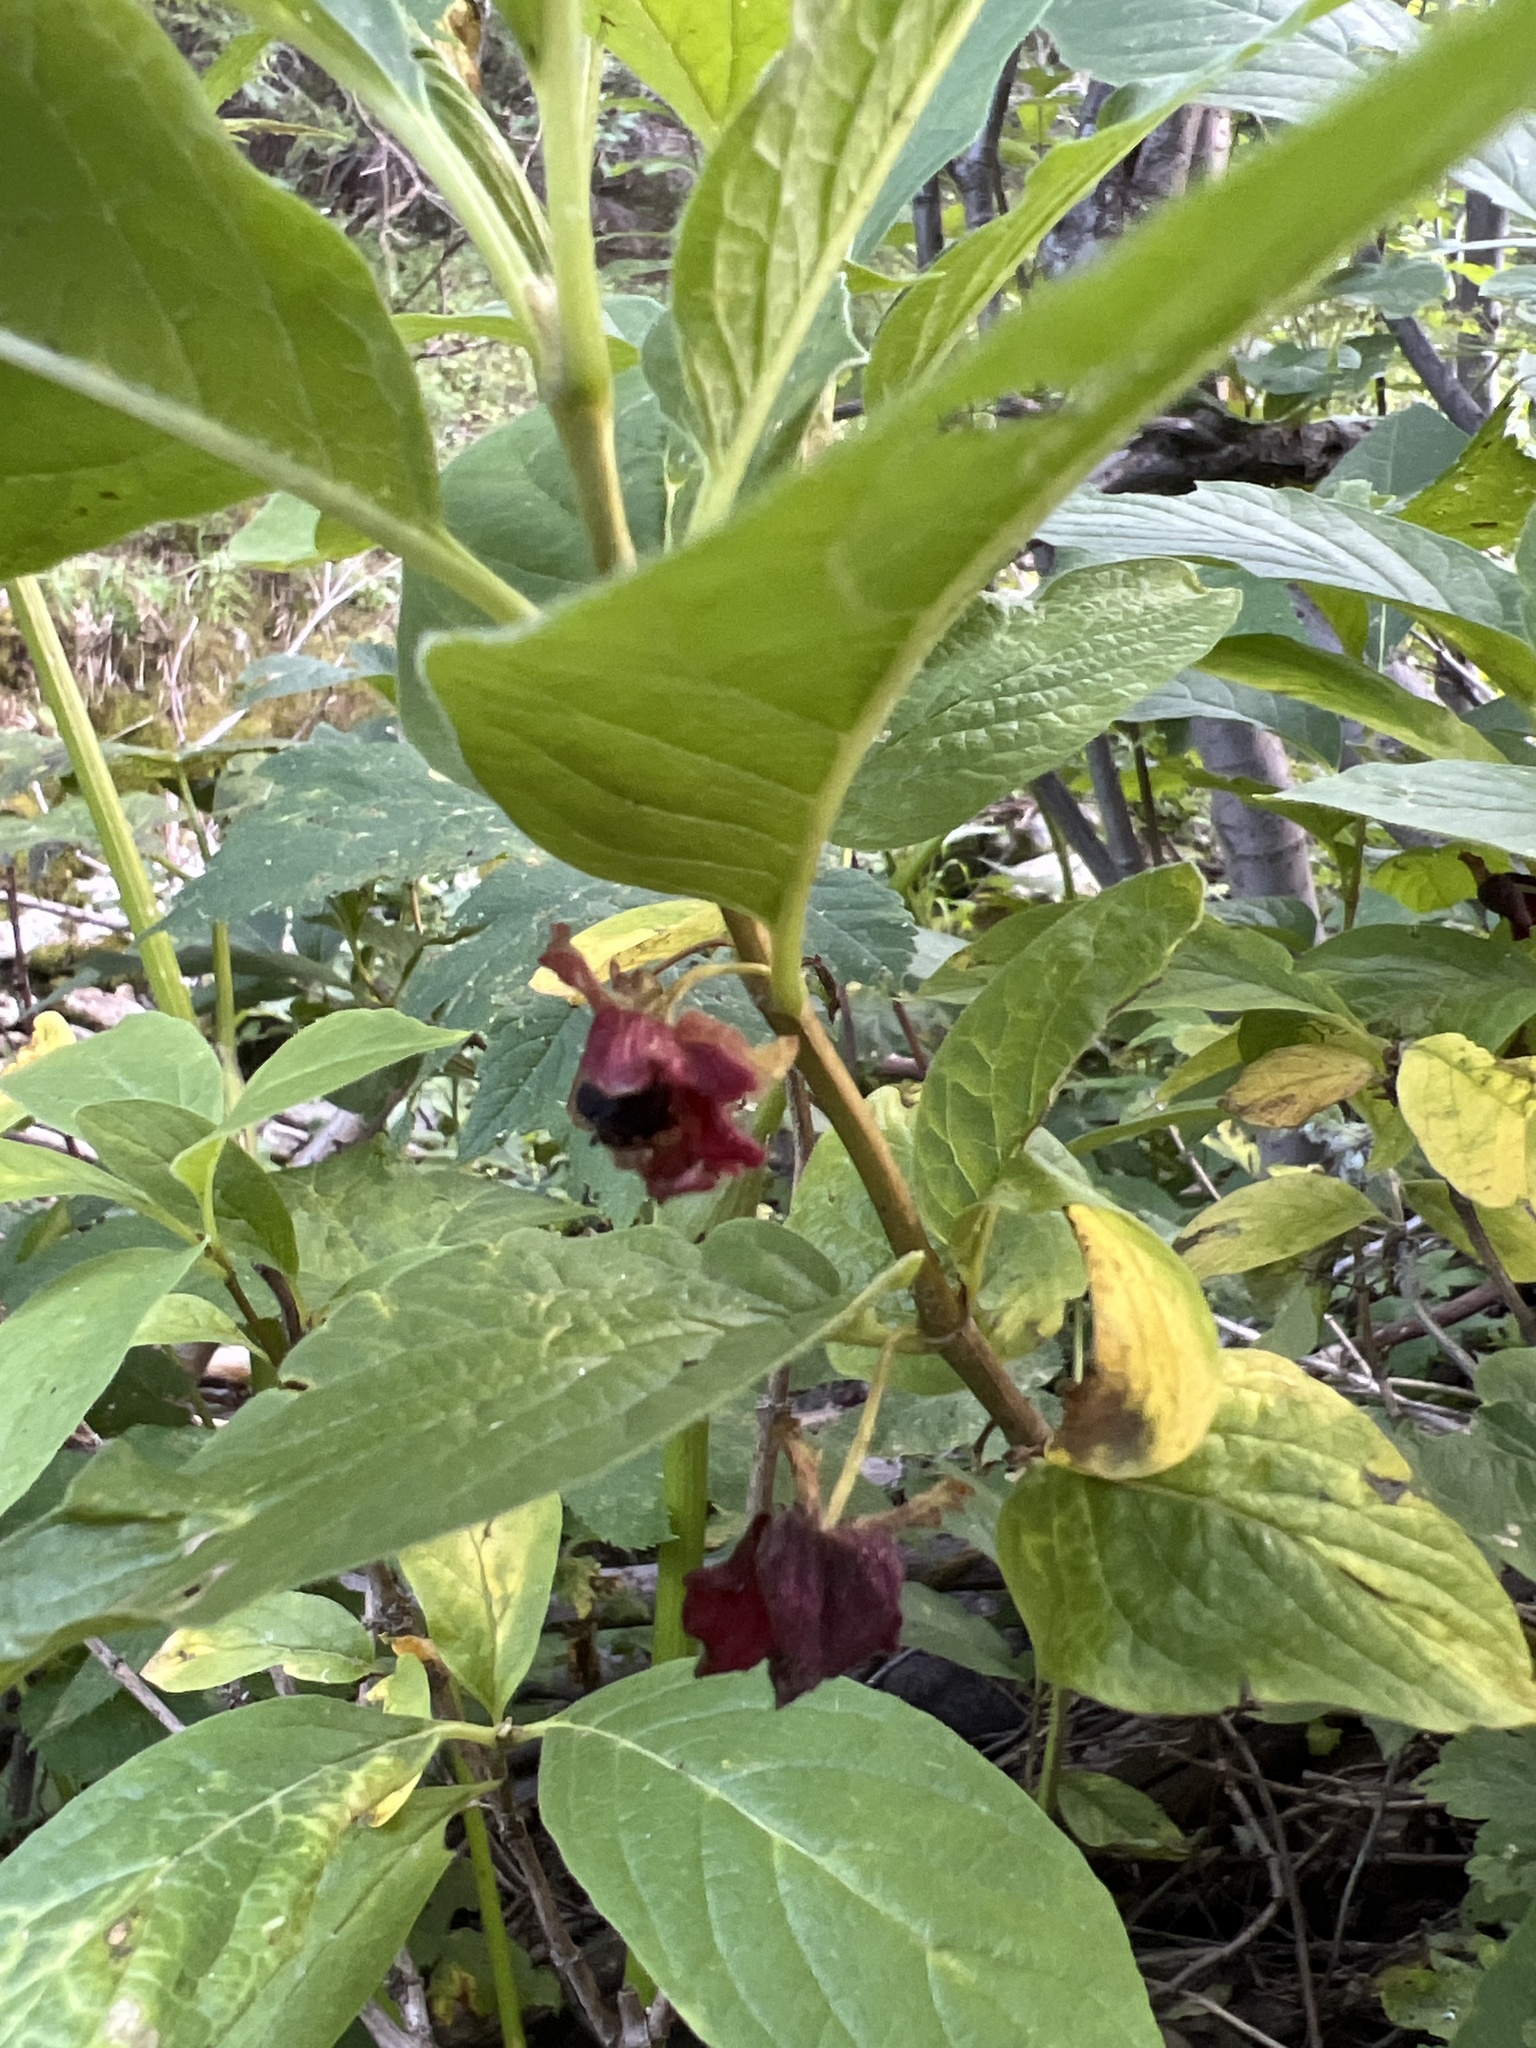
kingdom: Plantae
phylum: Tracheophyta
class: Magnoliopsida
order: Dipsacales
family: Caprifoliaceae
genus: Lonicera
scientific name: Lonicera involucrata
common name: Californian honeysuckle
